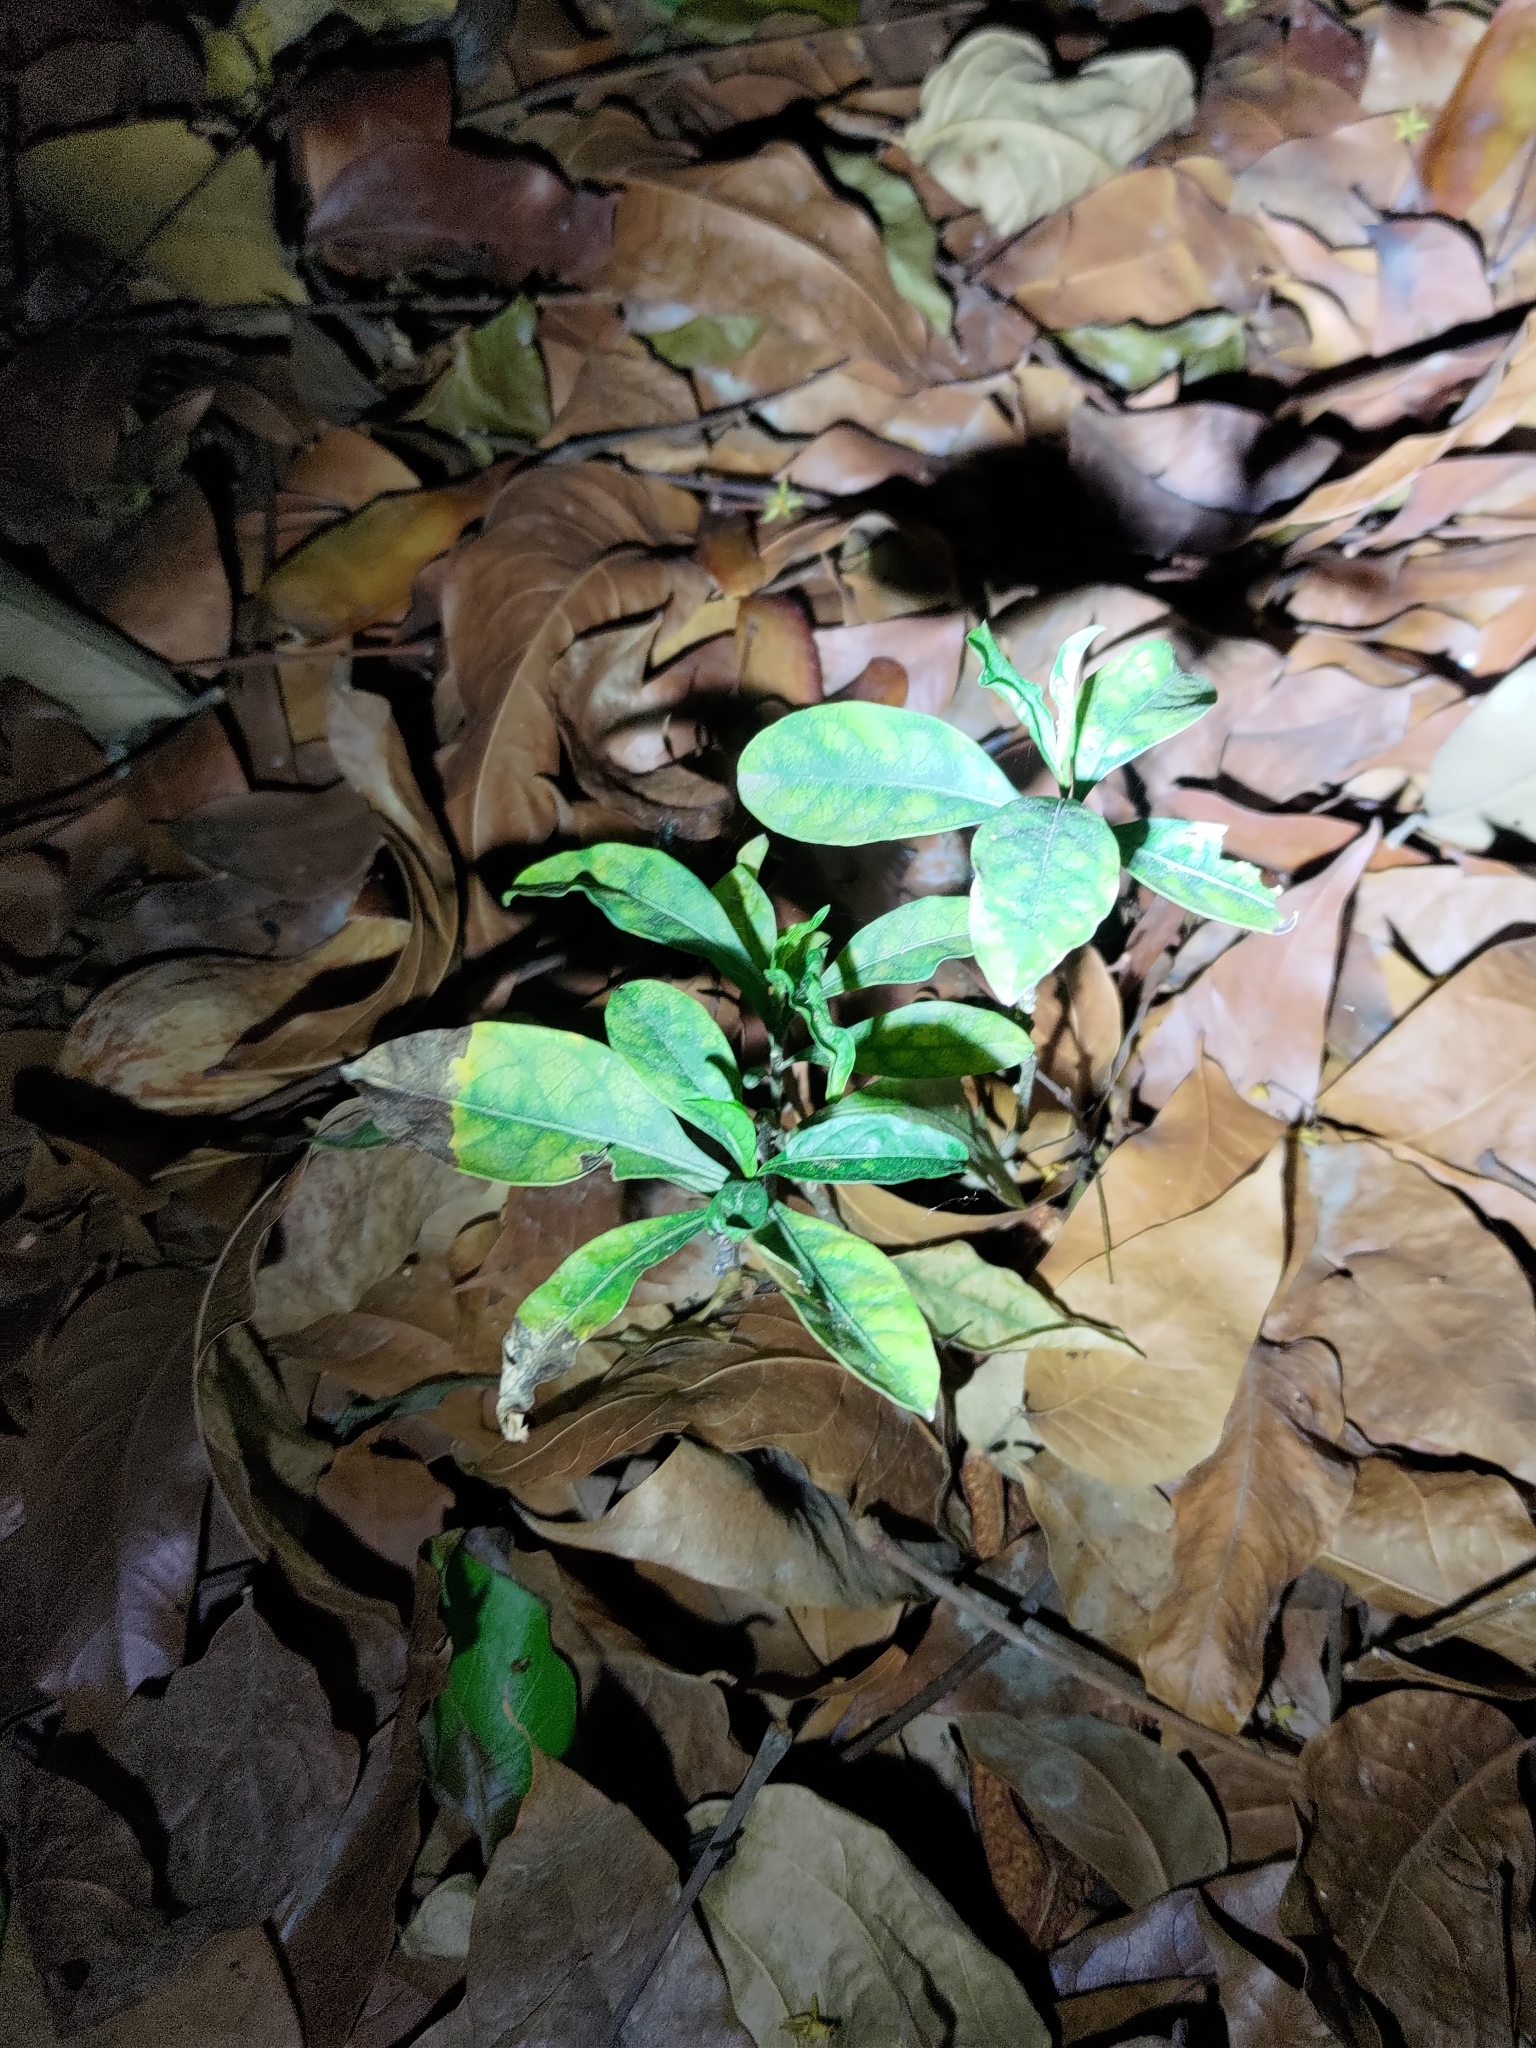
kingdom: Plantae
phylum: Tracheophyta
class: Magnoliopsida
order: Solanales
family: Solanaceae
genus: Solanum
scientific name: Solanum diphyllum
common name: Twoleaf nightshade
